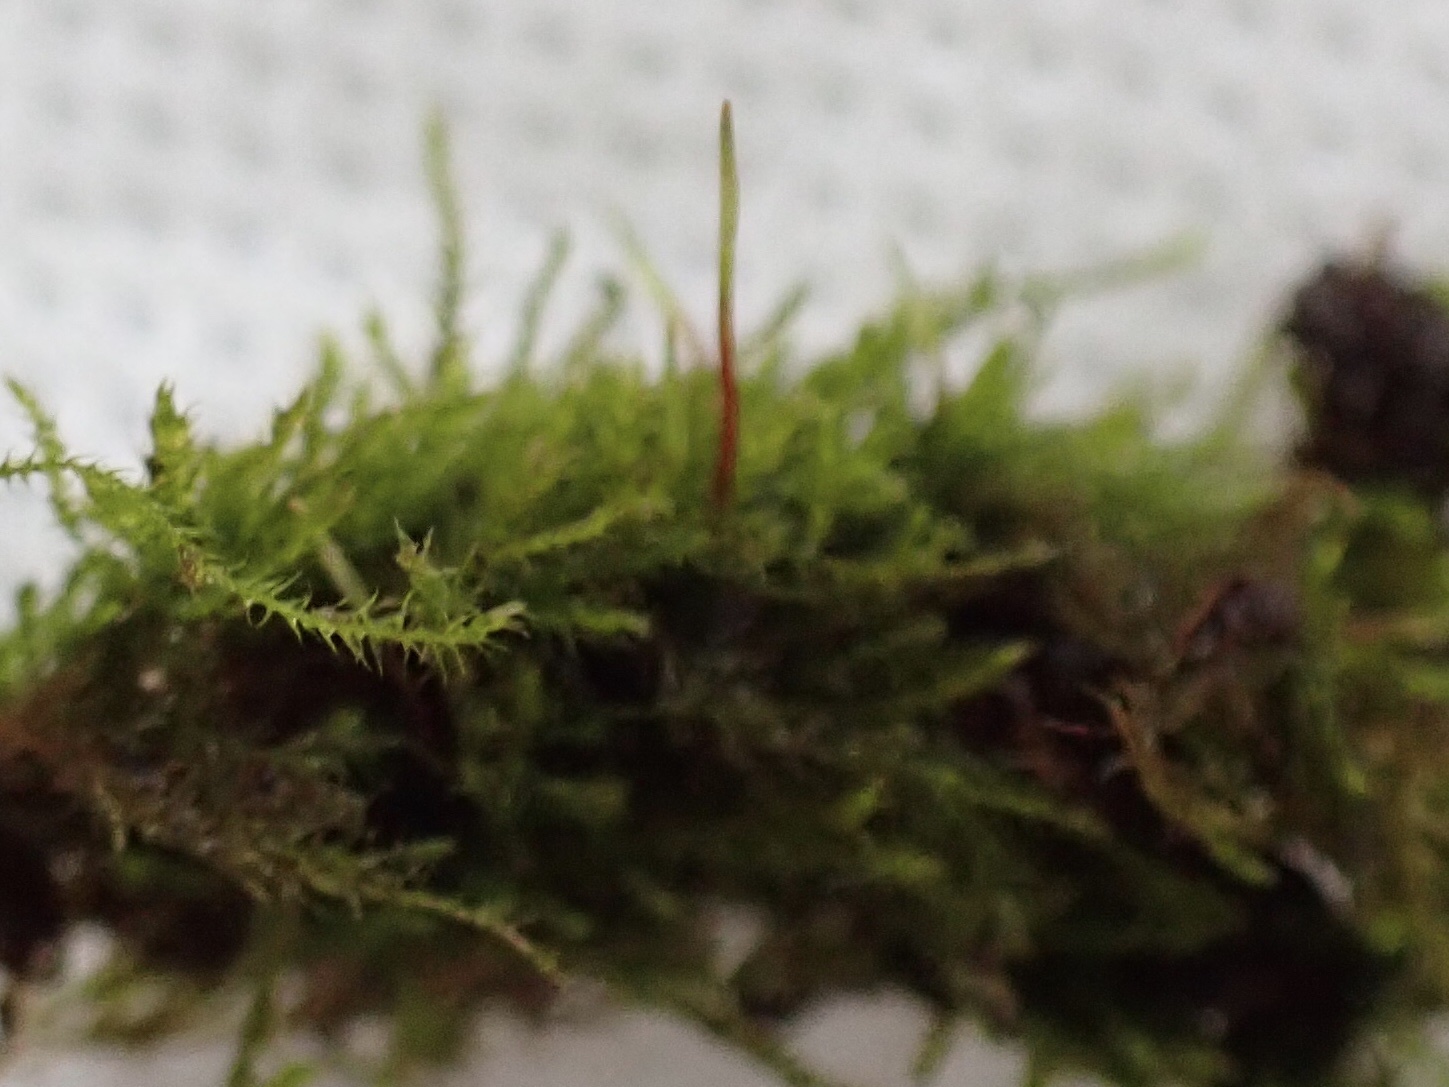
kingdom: Plantae
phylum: Bryophyta
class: Bryopsida
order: Hypnales
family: Amblystegiaceae
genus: Amblystegium
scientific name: Amblystegium serpens
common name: Jurkatzka's feather moss
